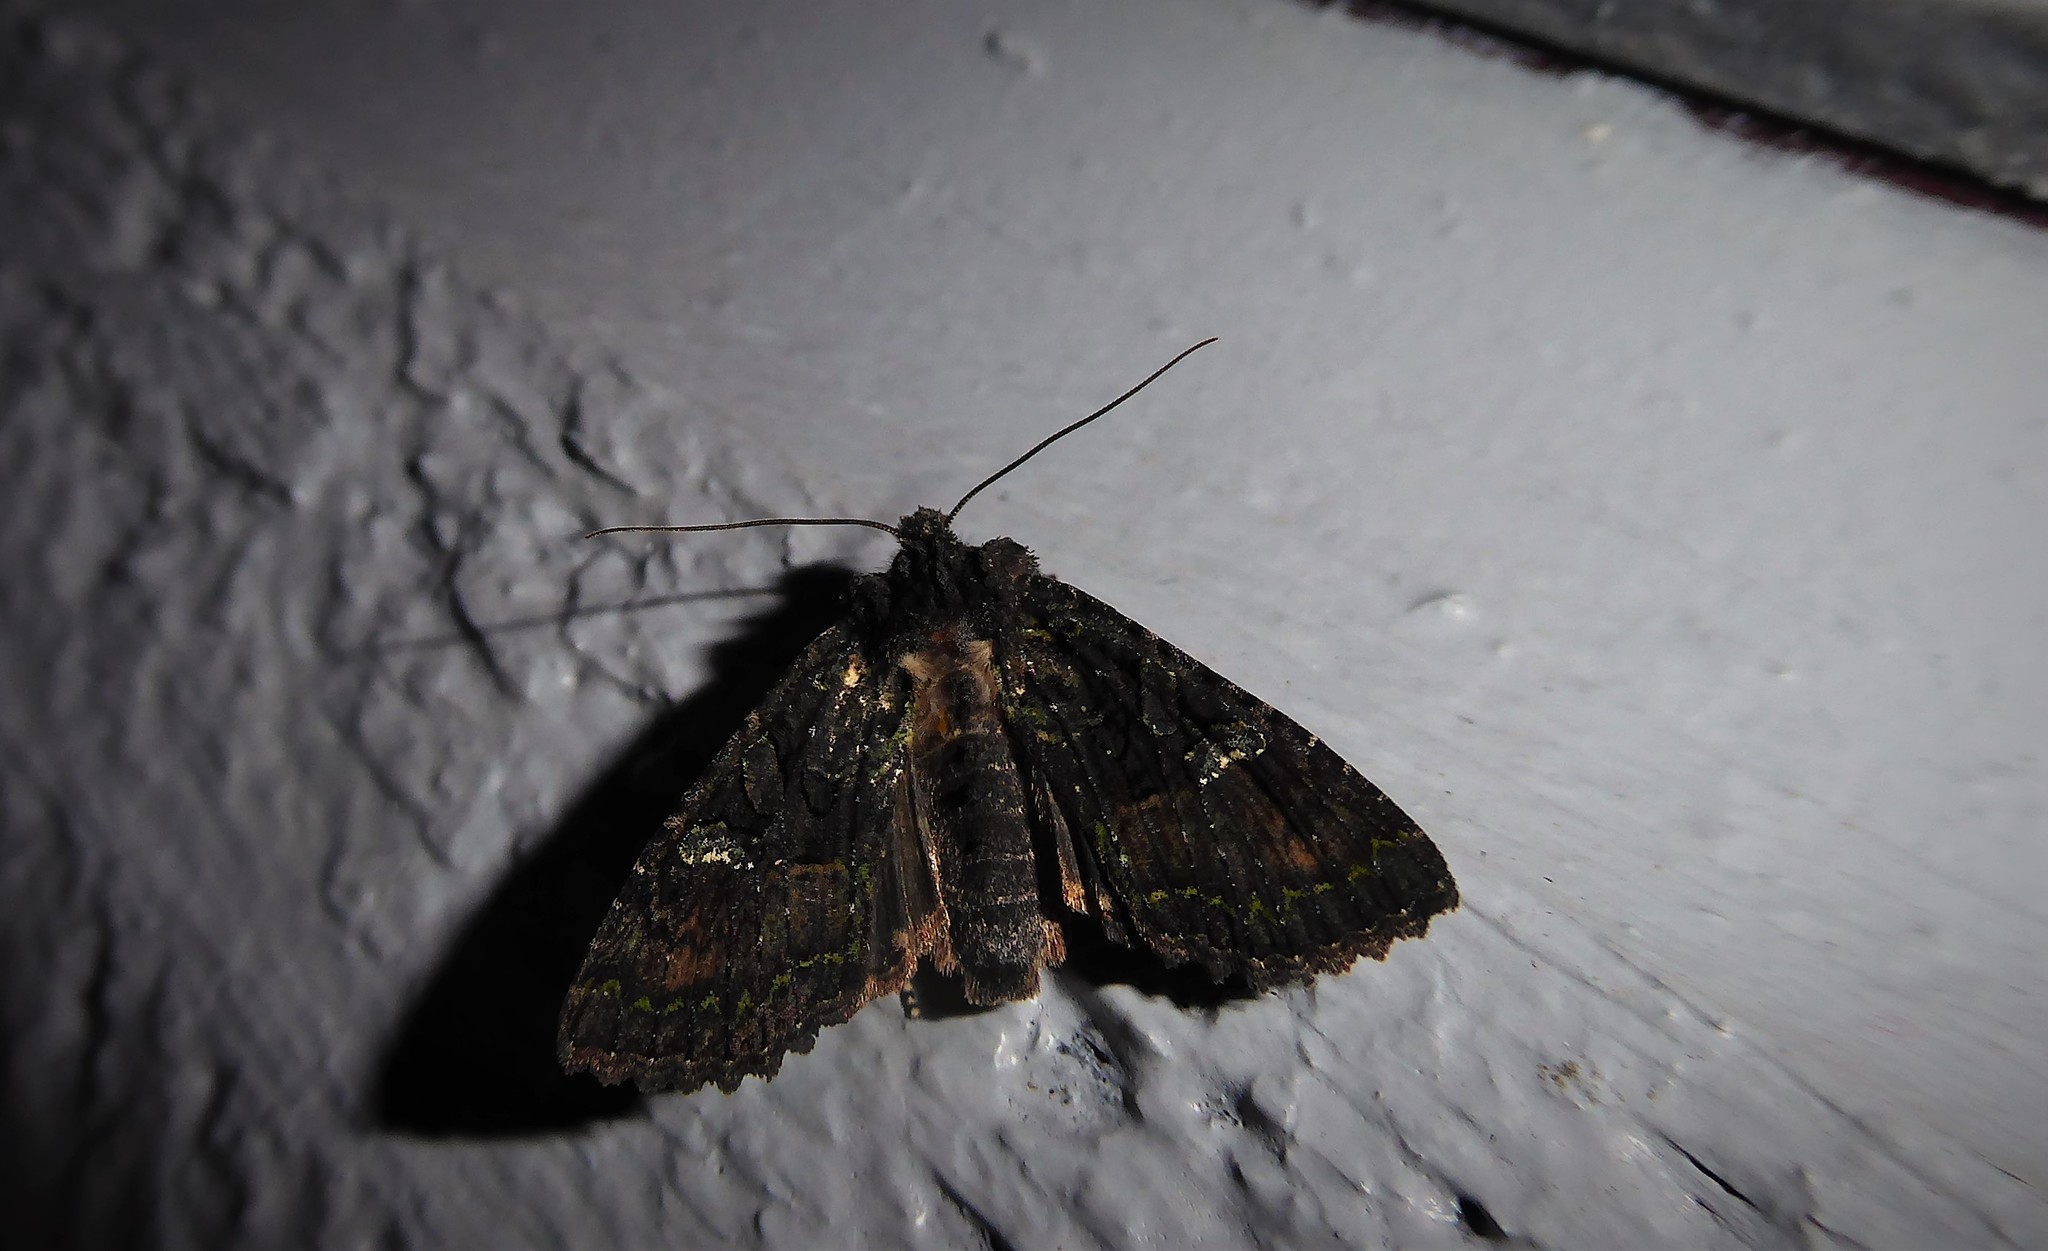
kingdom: Animalia
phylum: Arthropoda
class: Insecta
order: Lepidoptera
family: Noctuidae
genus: Meterana
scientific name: Meterana ochthistis
